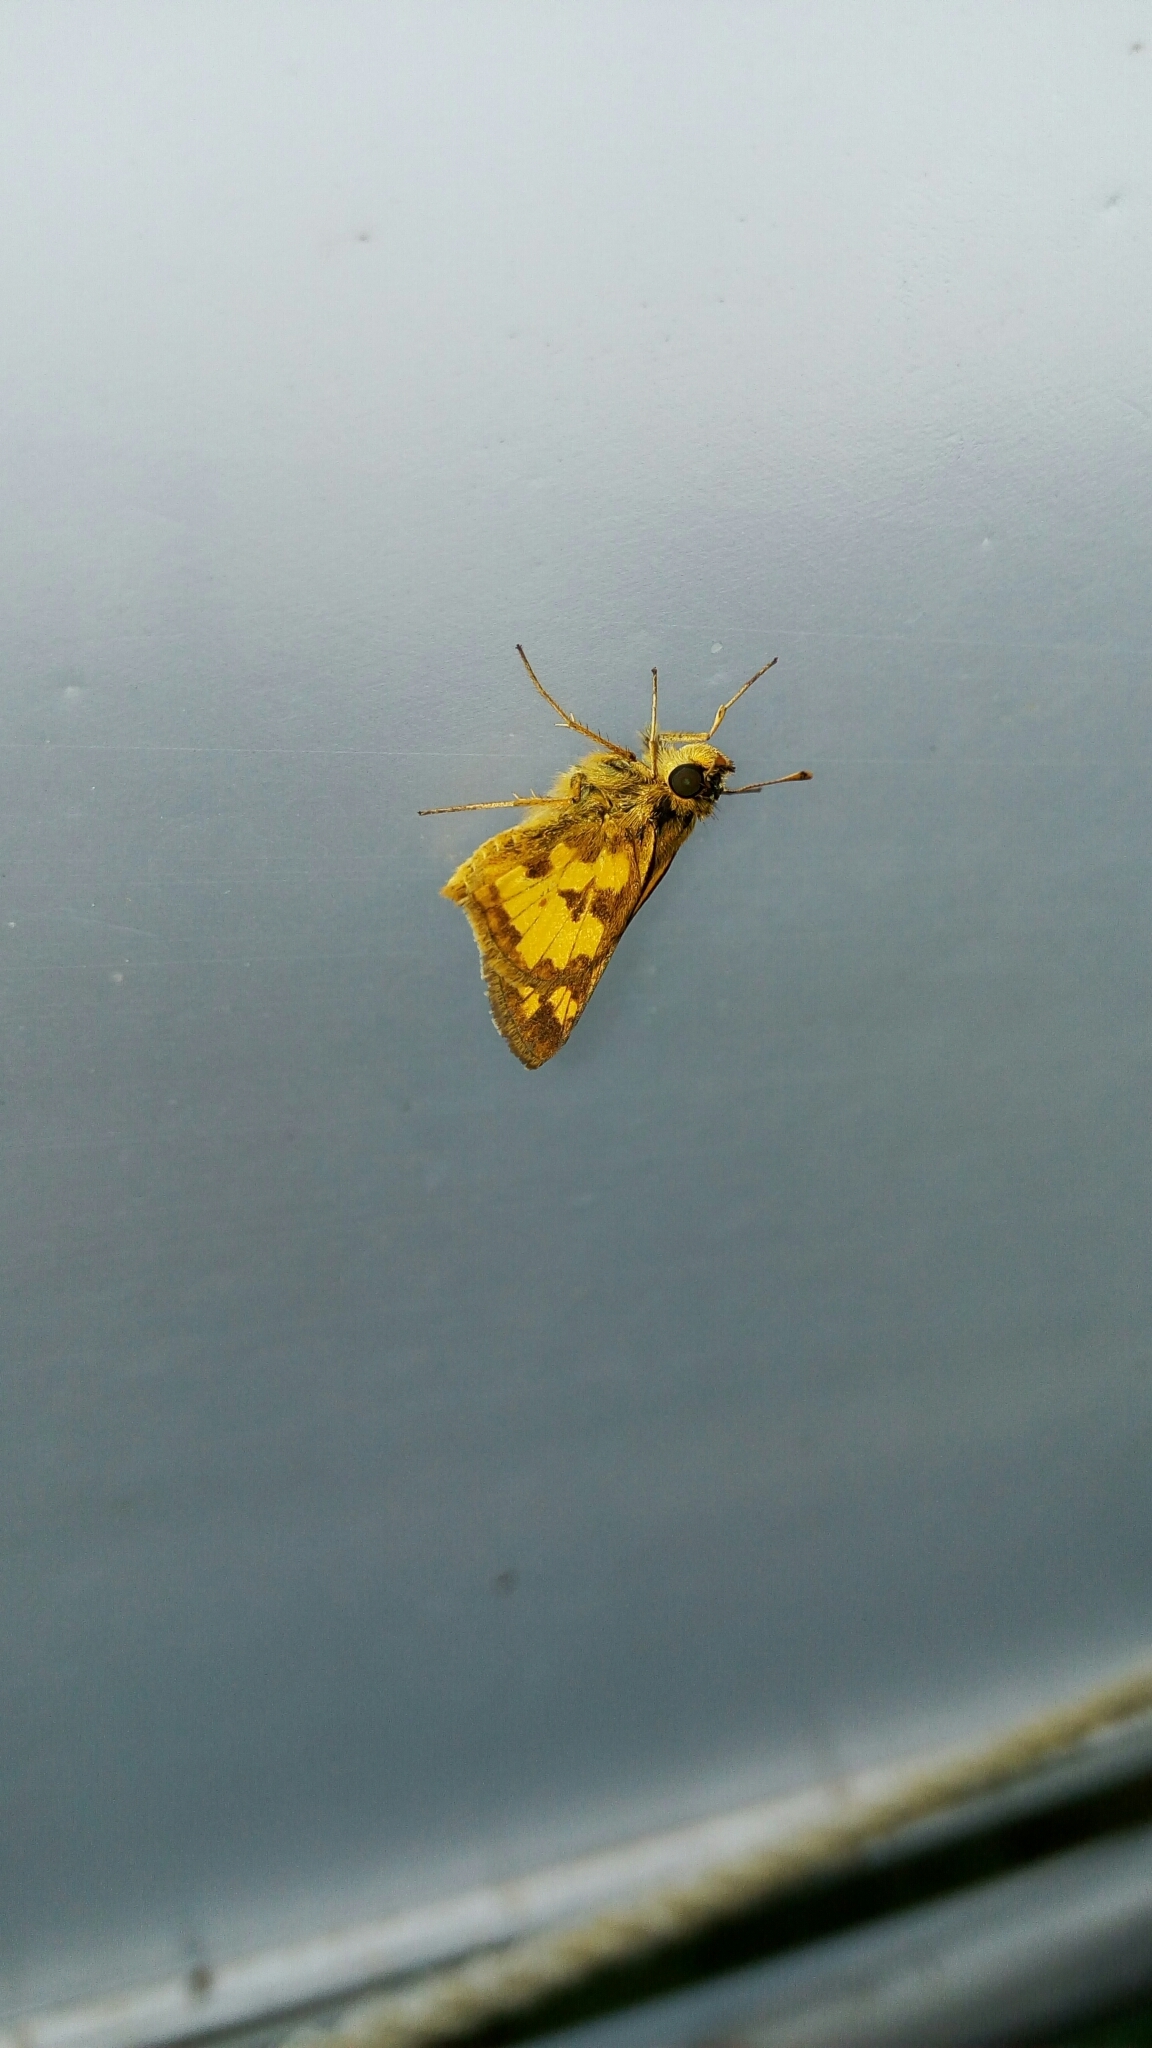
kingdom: Animalia
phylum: Arthropoda
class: Insecta
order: Lepidoptera
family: Hesperiidae
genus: Polites
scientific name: Polites coras
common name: Peck's skipper
